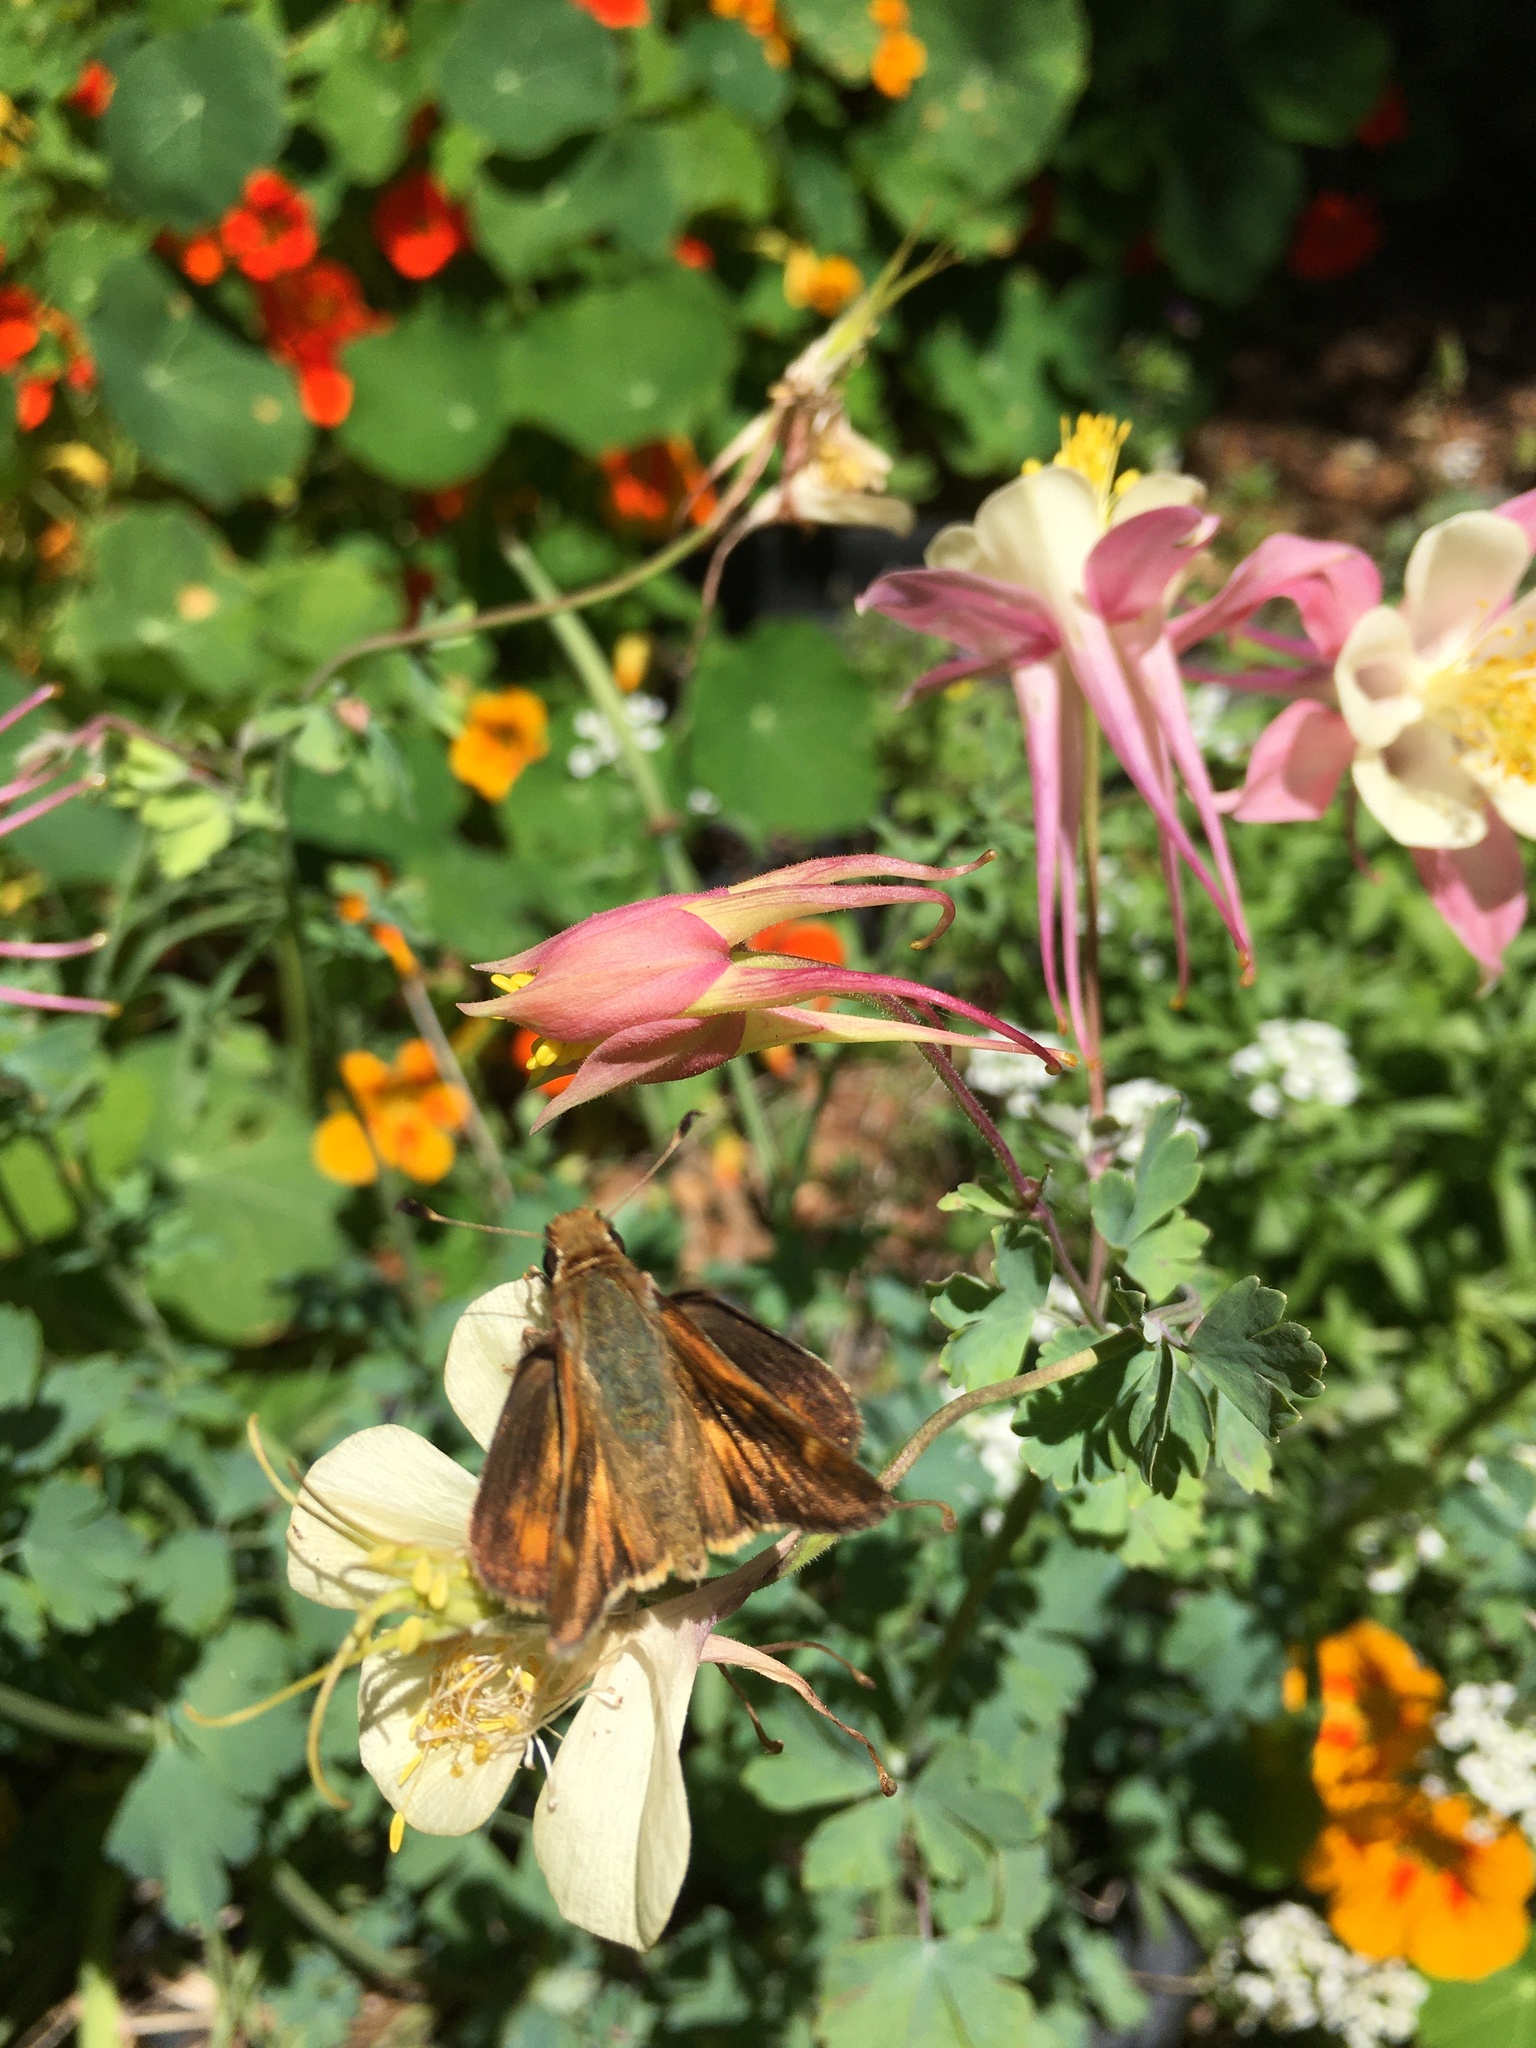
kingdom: Animalia
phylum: Arthropoda
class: Insecta
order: Lepidoptera
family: Hesperiidae
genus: Lon
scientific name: Lon melane
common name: Umber skipper
